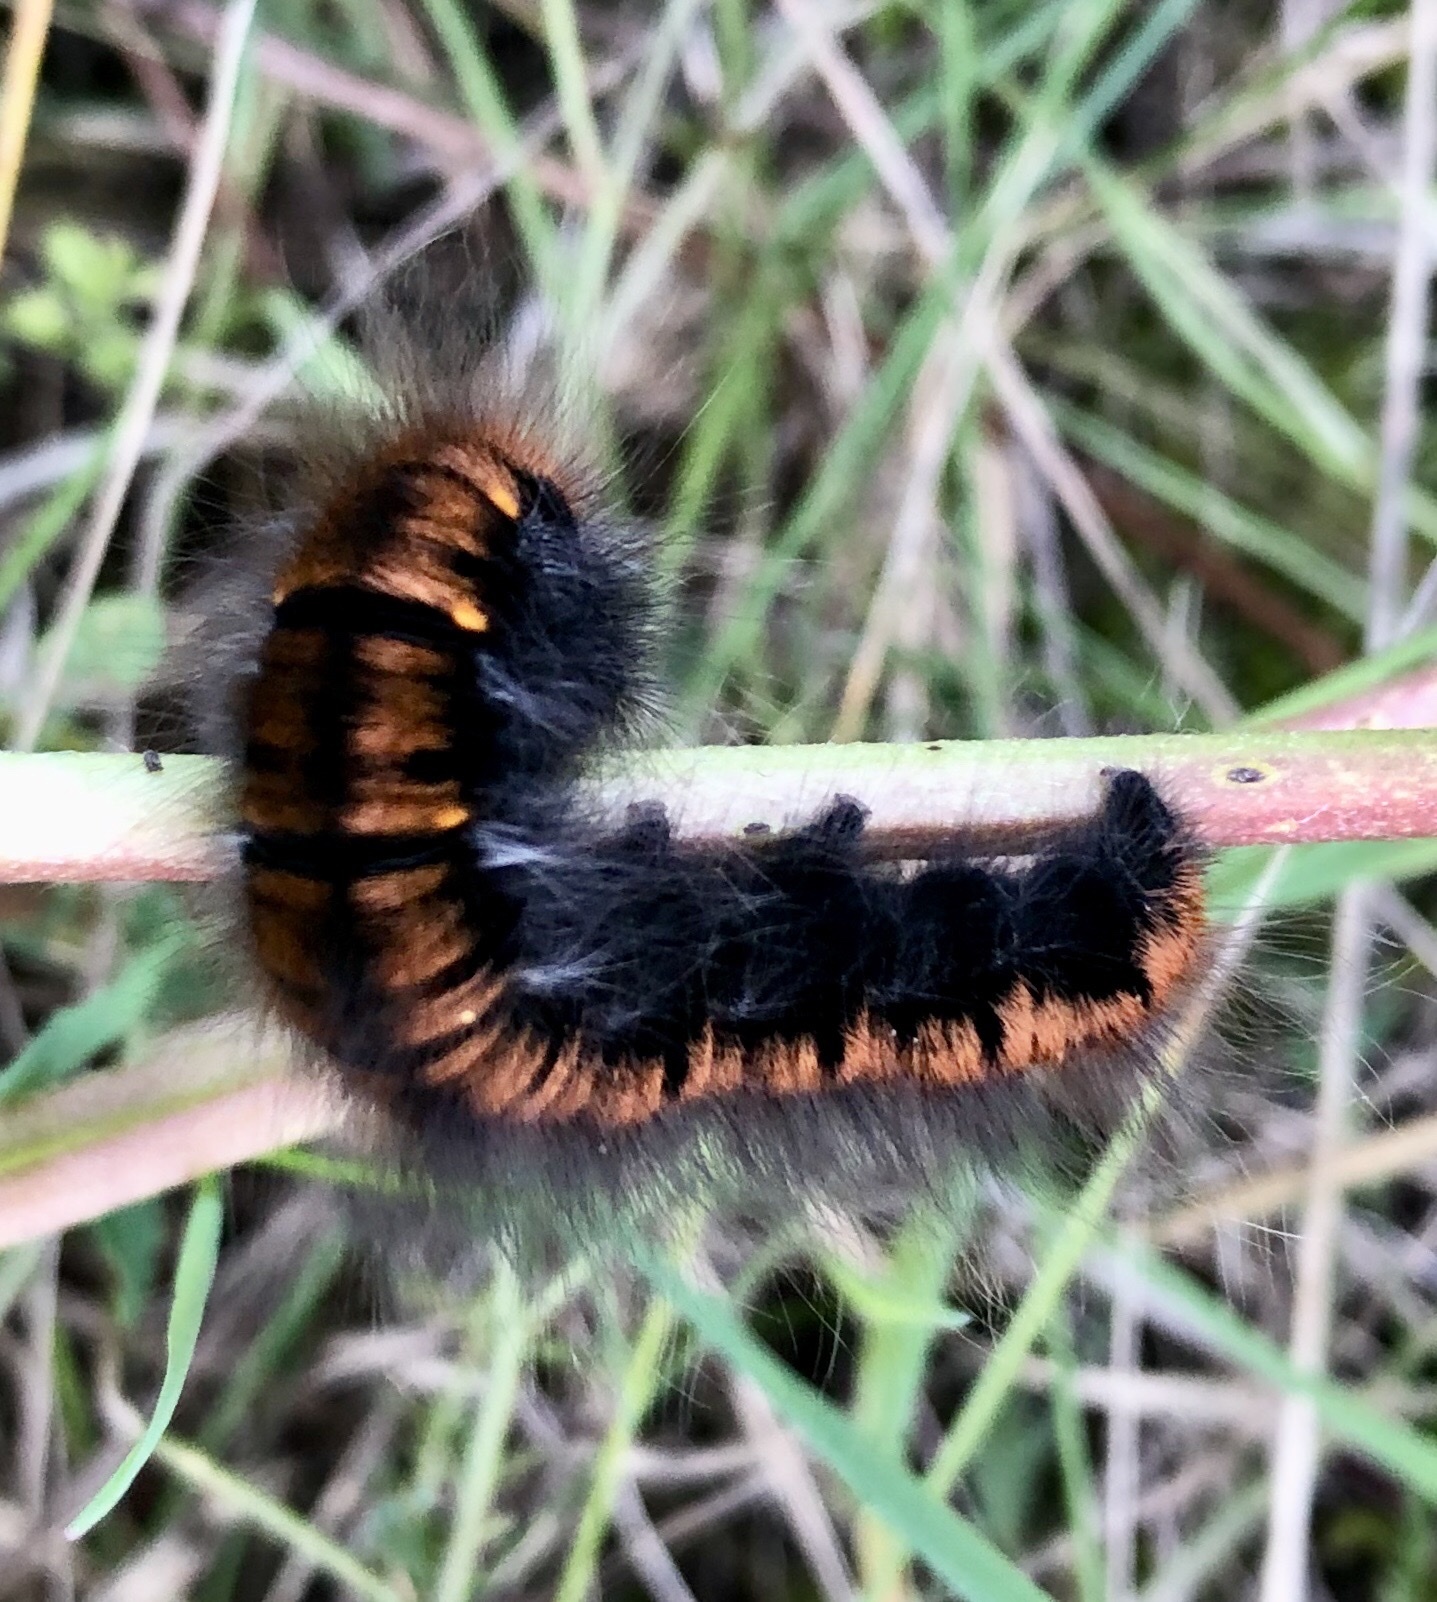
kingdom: Animalia
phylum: Arthropoda
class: Insecta
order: Lepidoptera
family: Lasiocampidae
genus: Macrothylacia
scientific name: Macrothylacia rubi
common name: Fox moth
